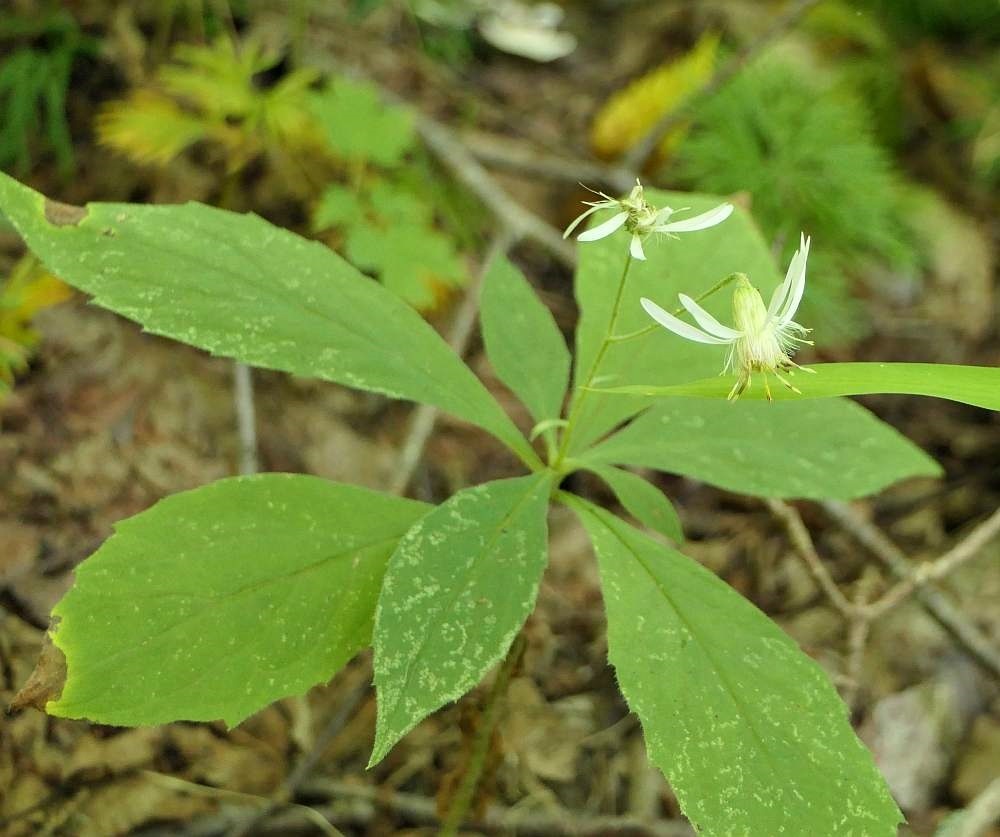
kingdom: Plantae
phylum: Tracheophyta
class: Magnoliopsida
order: Asterales
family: Asteraceae
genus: Oclemena
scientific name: Oclemena acuminata
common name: Mountain aster
